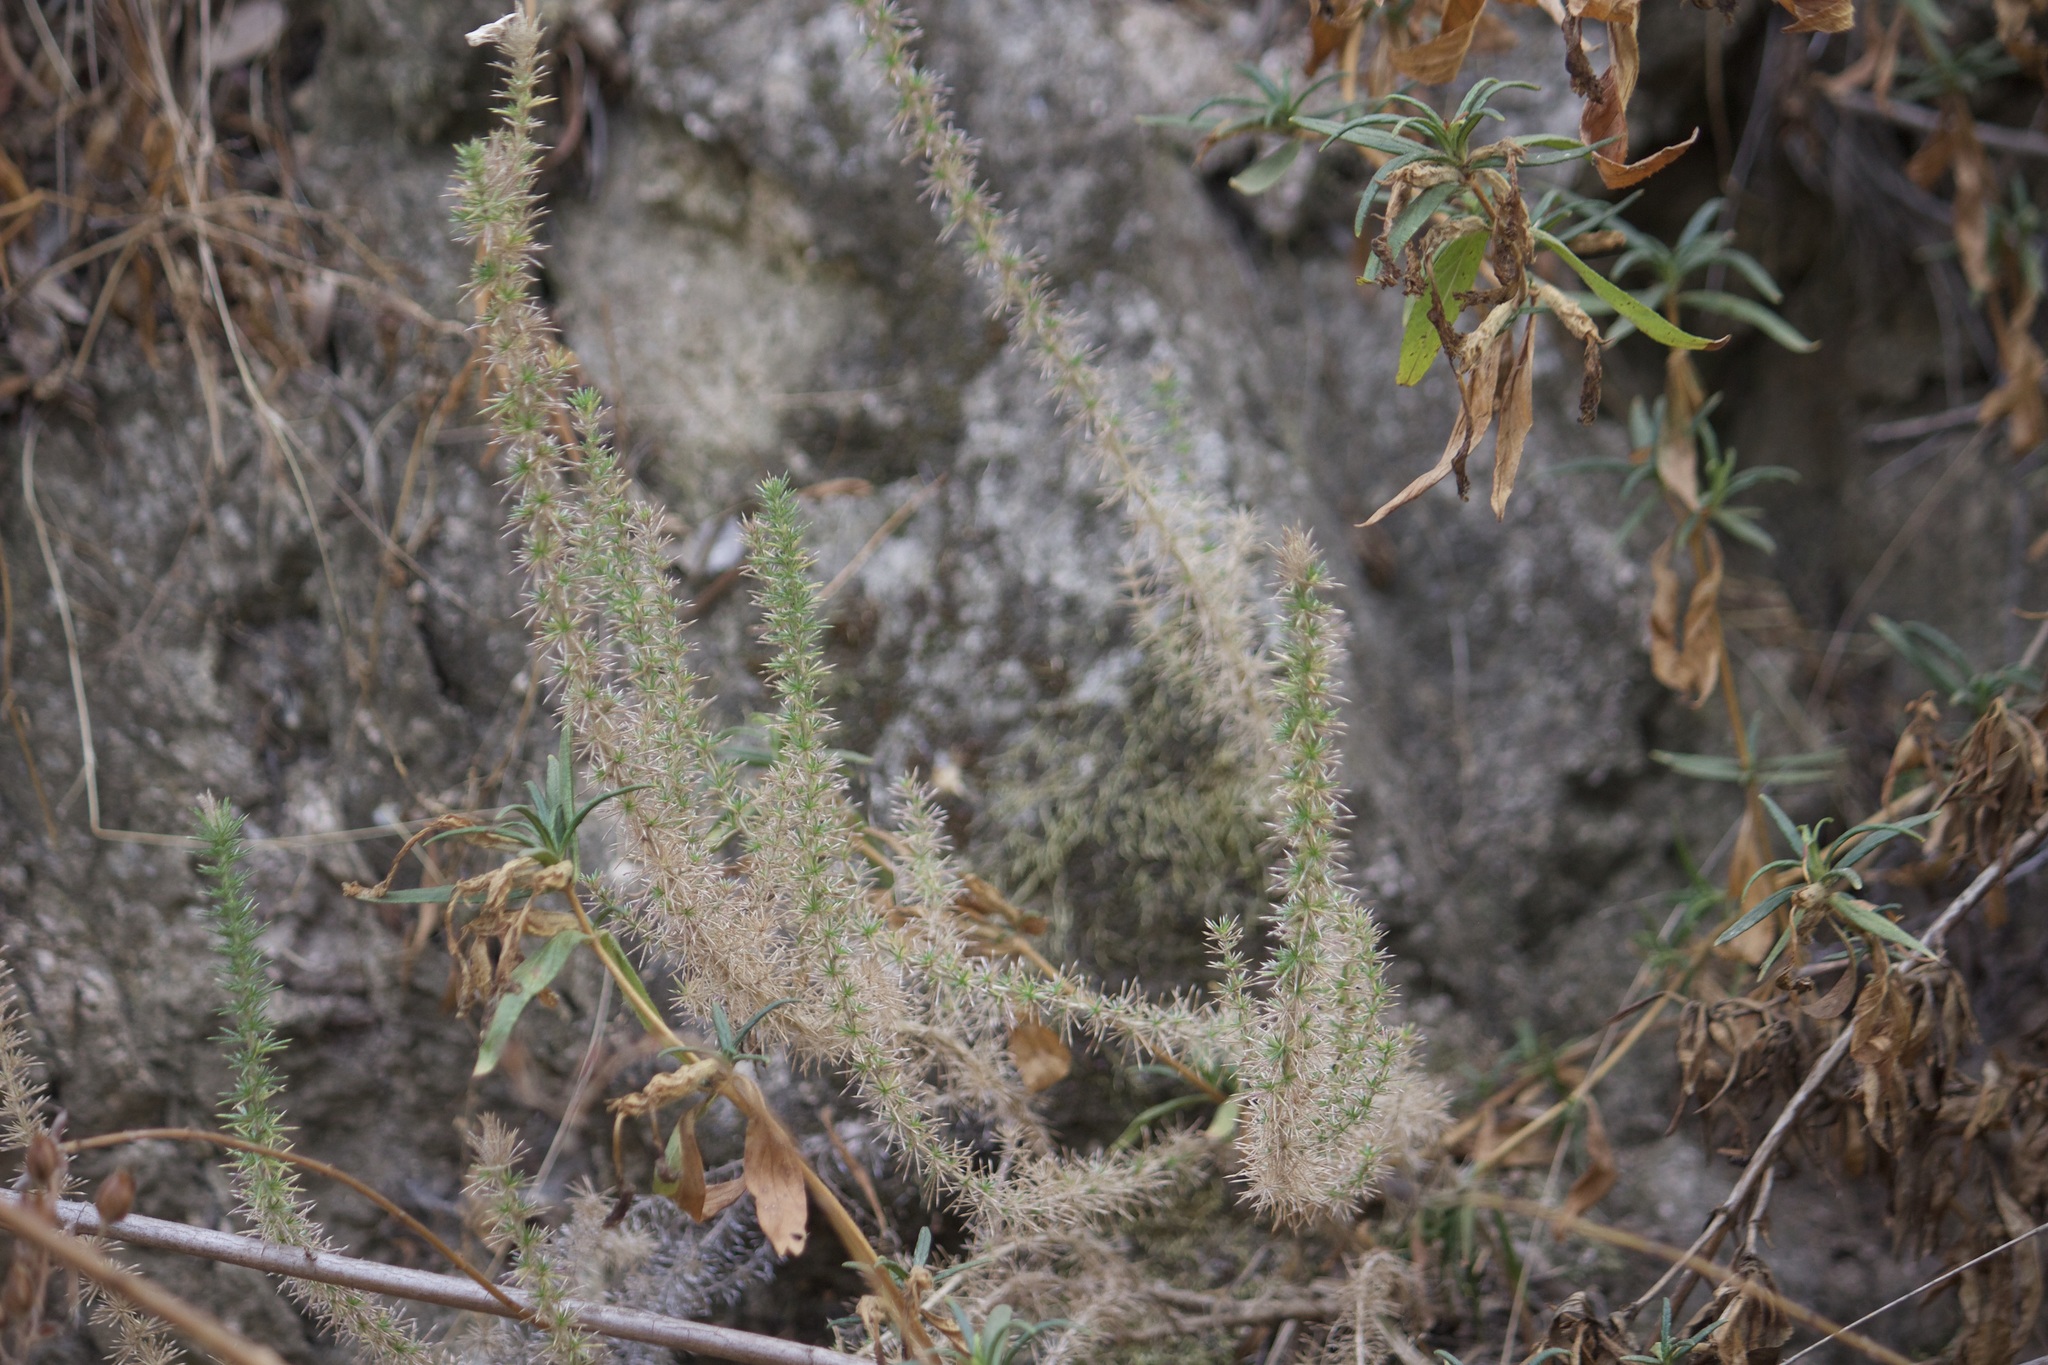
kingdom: Plantae
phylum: Tracheophyta
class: Magnoliopsida
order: Ericales
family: Polemoniaceae
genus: Linanthus
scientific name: Linanthus californicus
